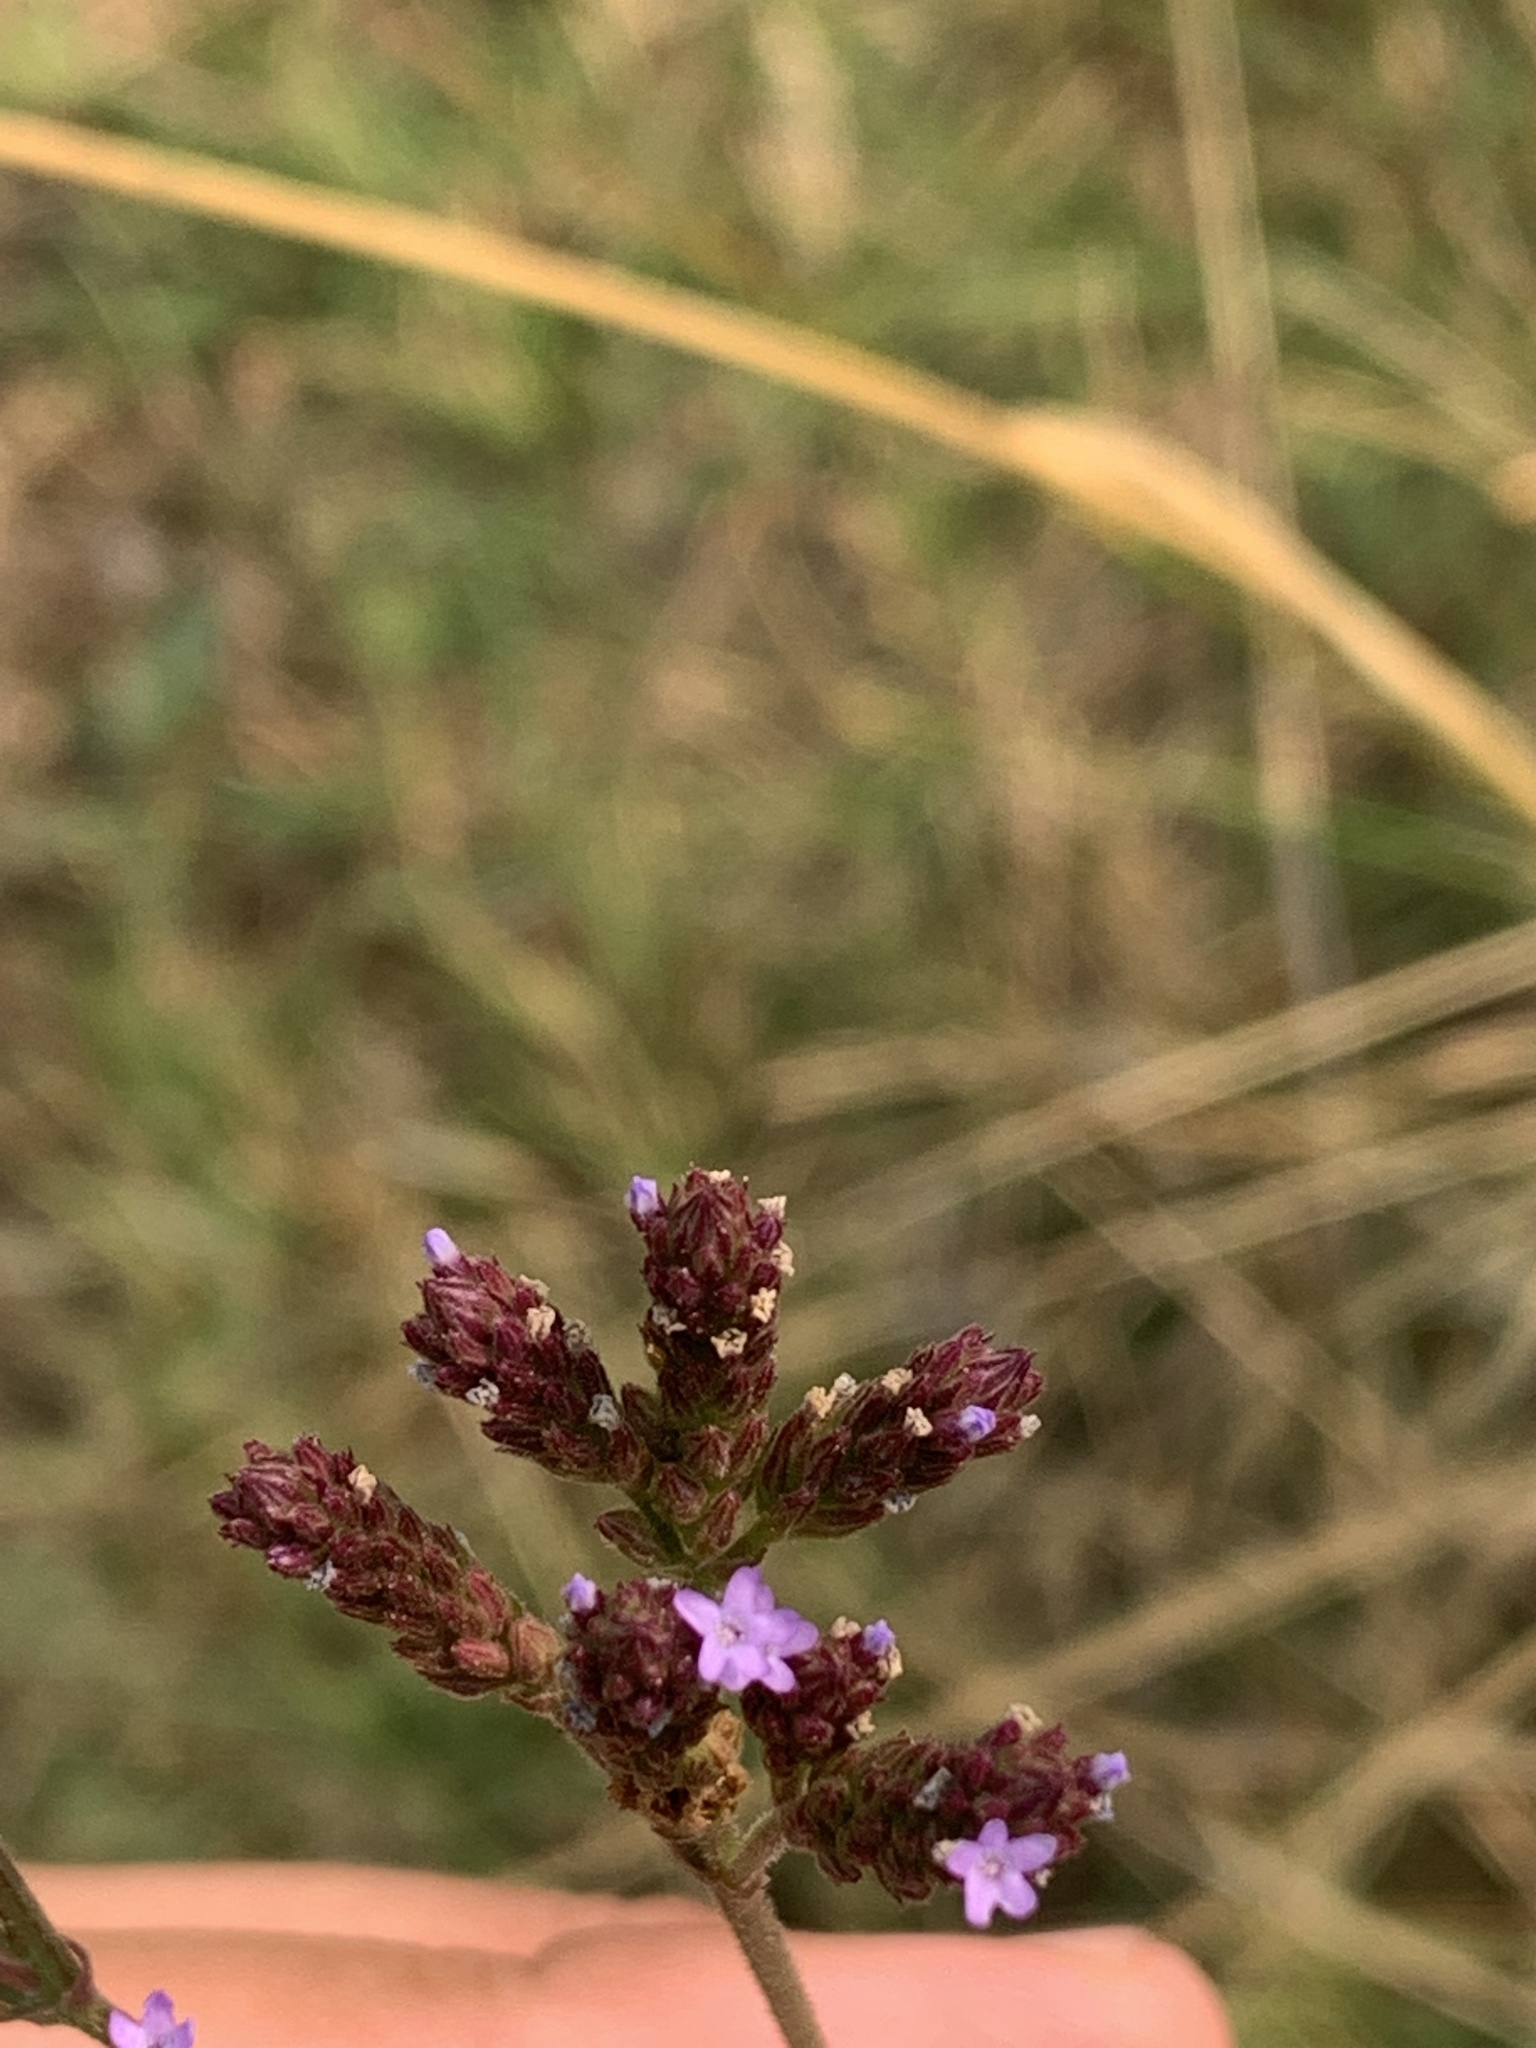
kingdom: Plantae
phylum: Tracheophyta
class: Magnoliopsida
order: Lamiales
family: Verbenaceae
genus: Verbena
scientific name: Verbena brasiliensis
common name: Brazilian vervain
